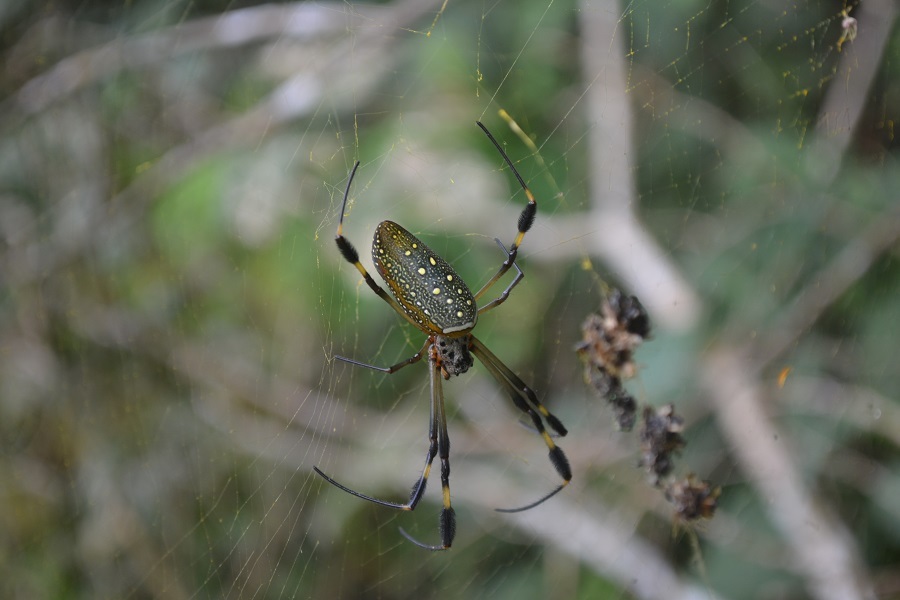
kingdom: Animalia
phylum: Arthropoda
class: Arachnida
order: Araneae
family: Araneidae
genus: Trichonephila
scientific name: Trichonephila clavipes
